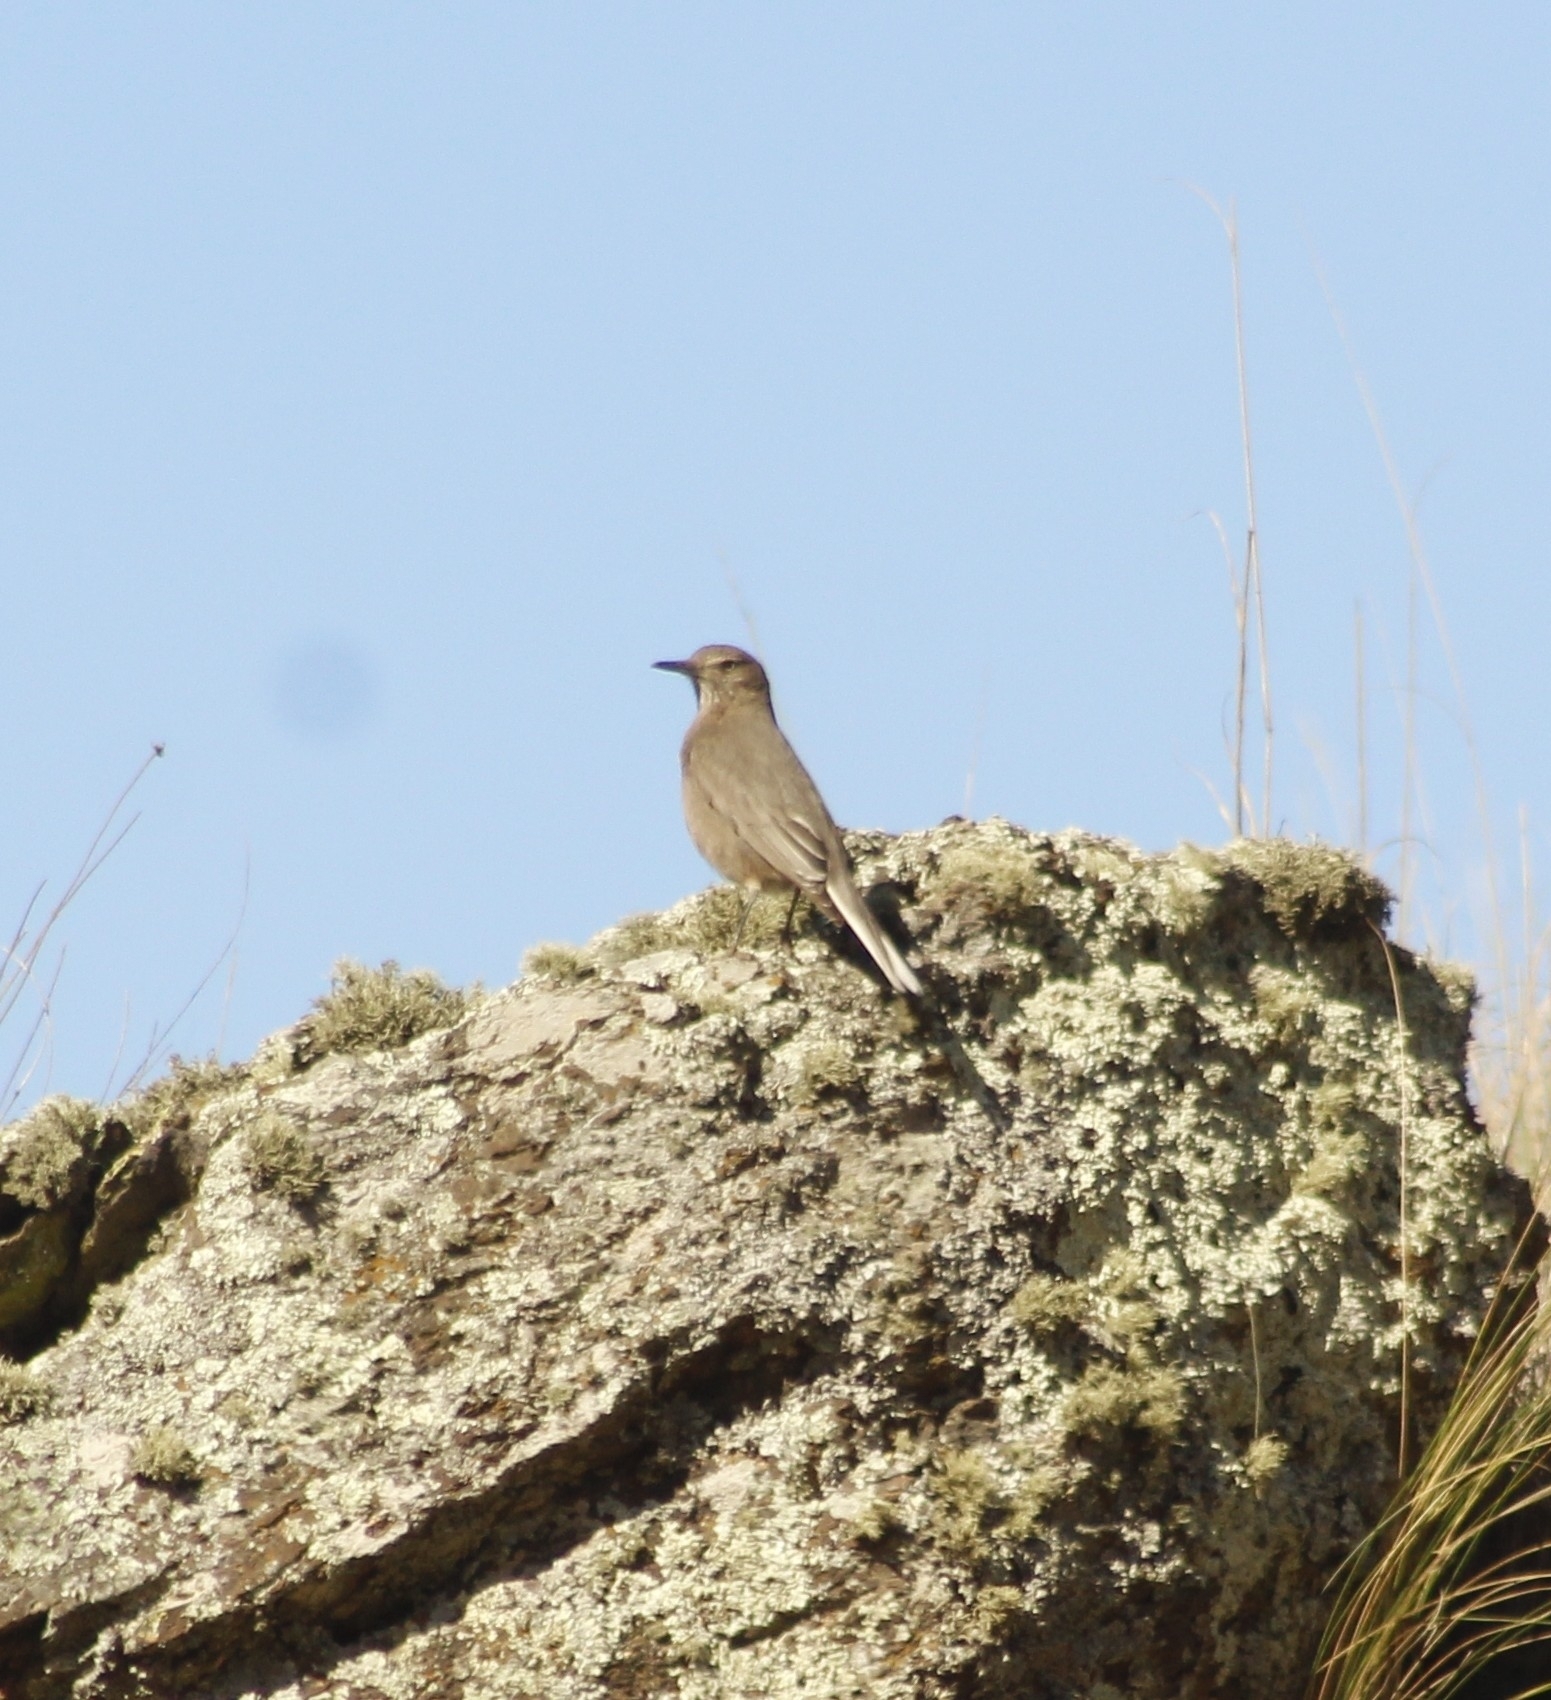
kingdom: Animalia
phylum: Chordata
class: Aves
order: Passeriformes
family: Tyrannidae
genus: Agriornis
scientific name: Agriornis montanus
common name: Black-billed shrike-tyrant
